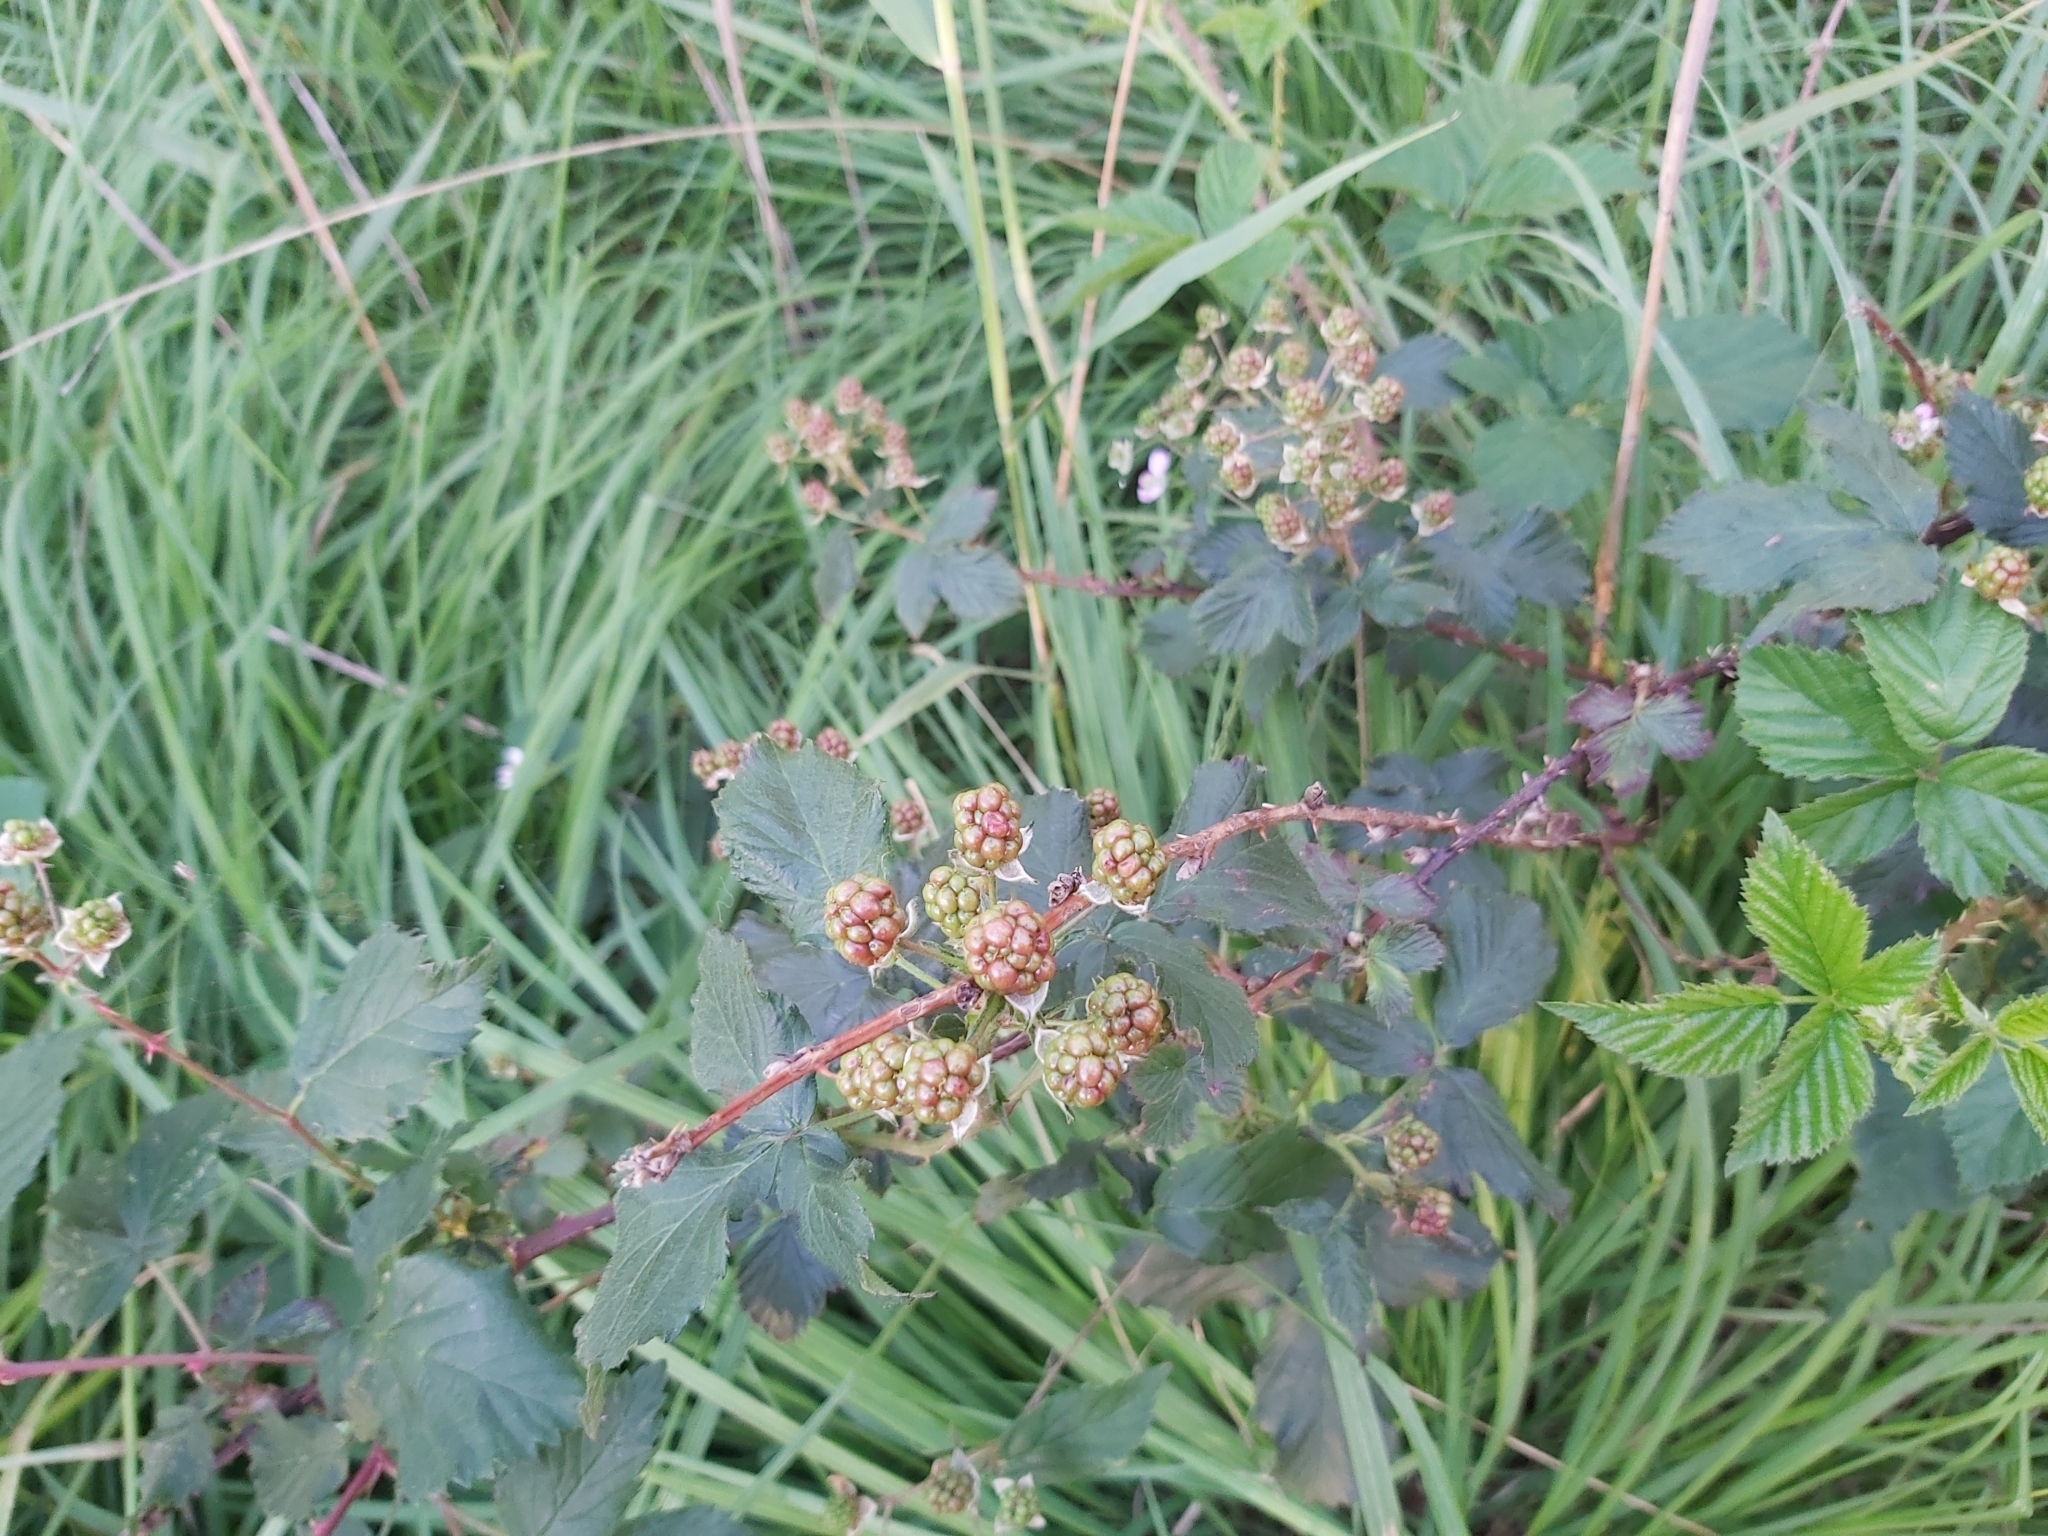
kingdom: Plantae
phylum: Tracheophyta
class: Magnoliopsida
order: Rosales
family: Rosaceae
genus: Rubus
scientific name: Rubus
